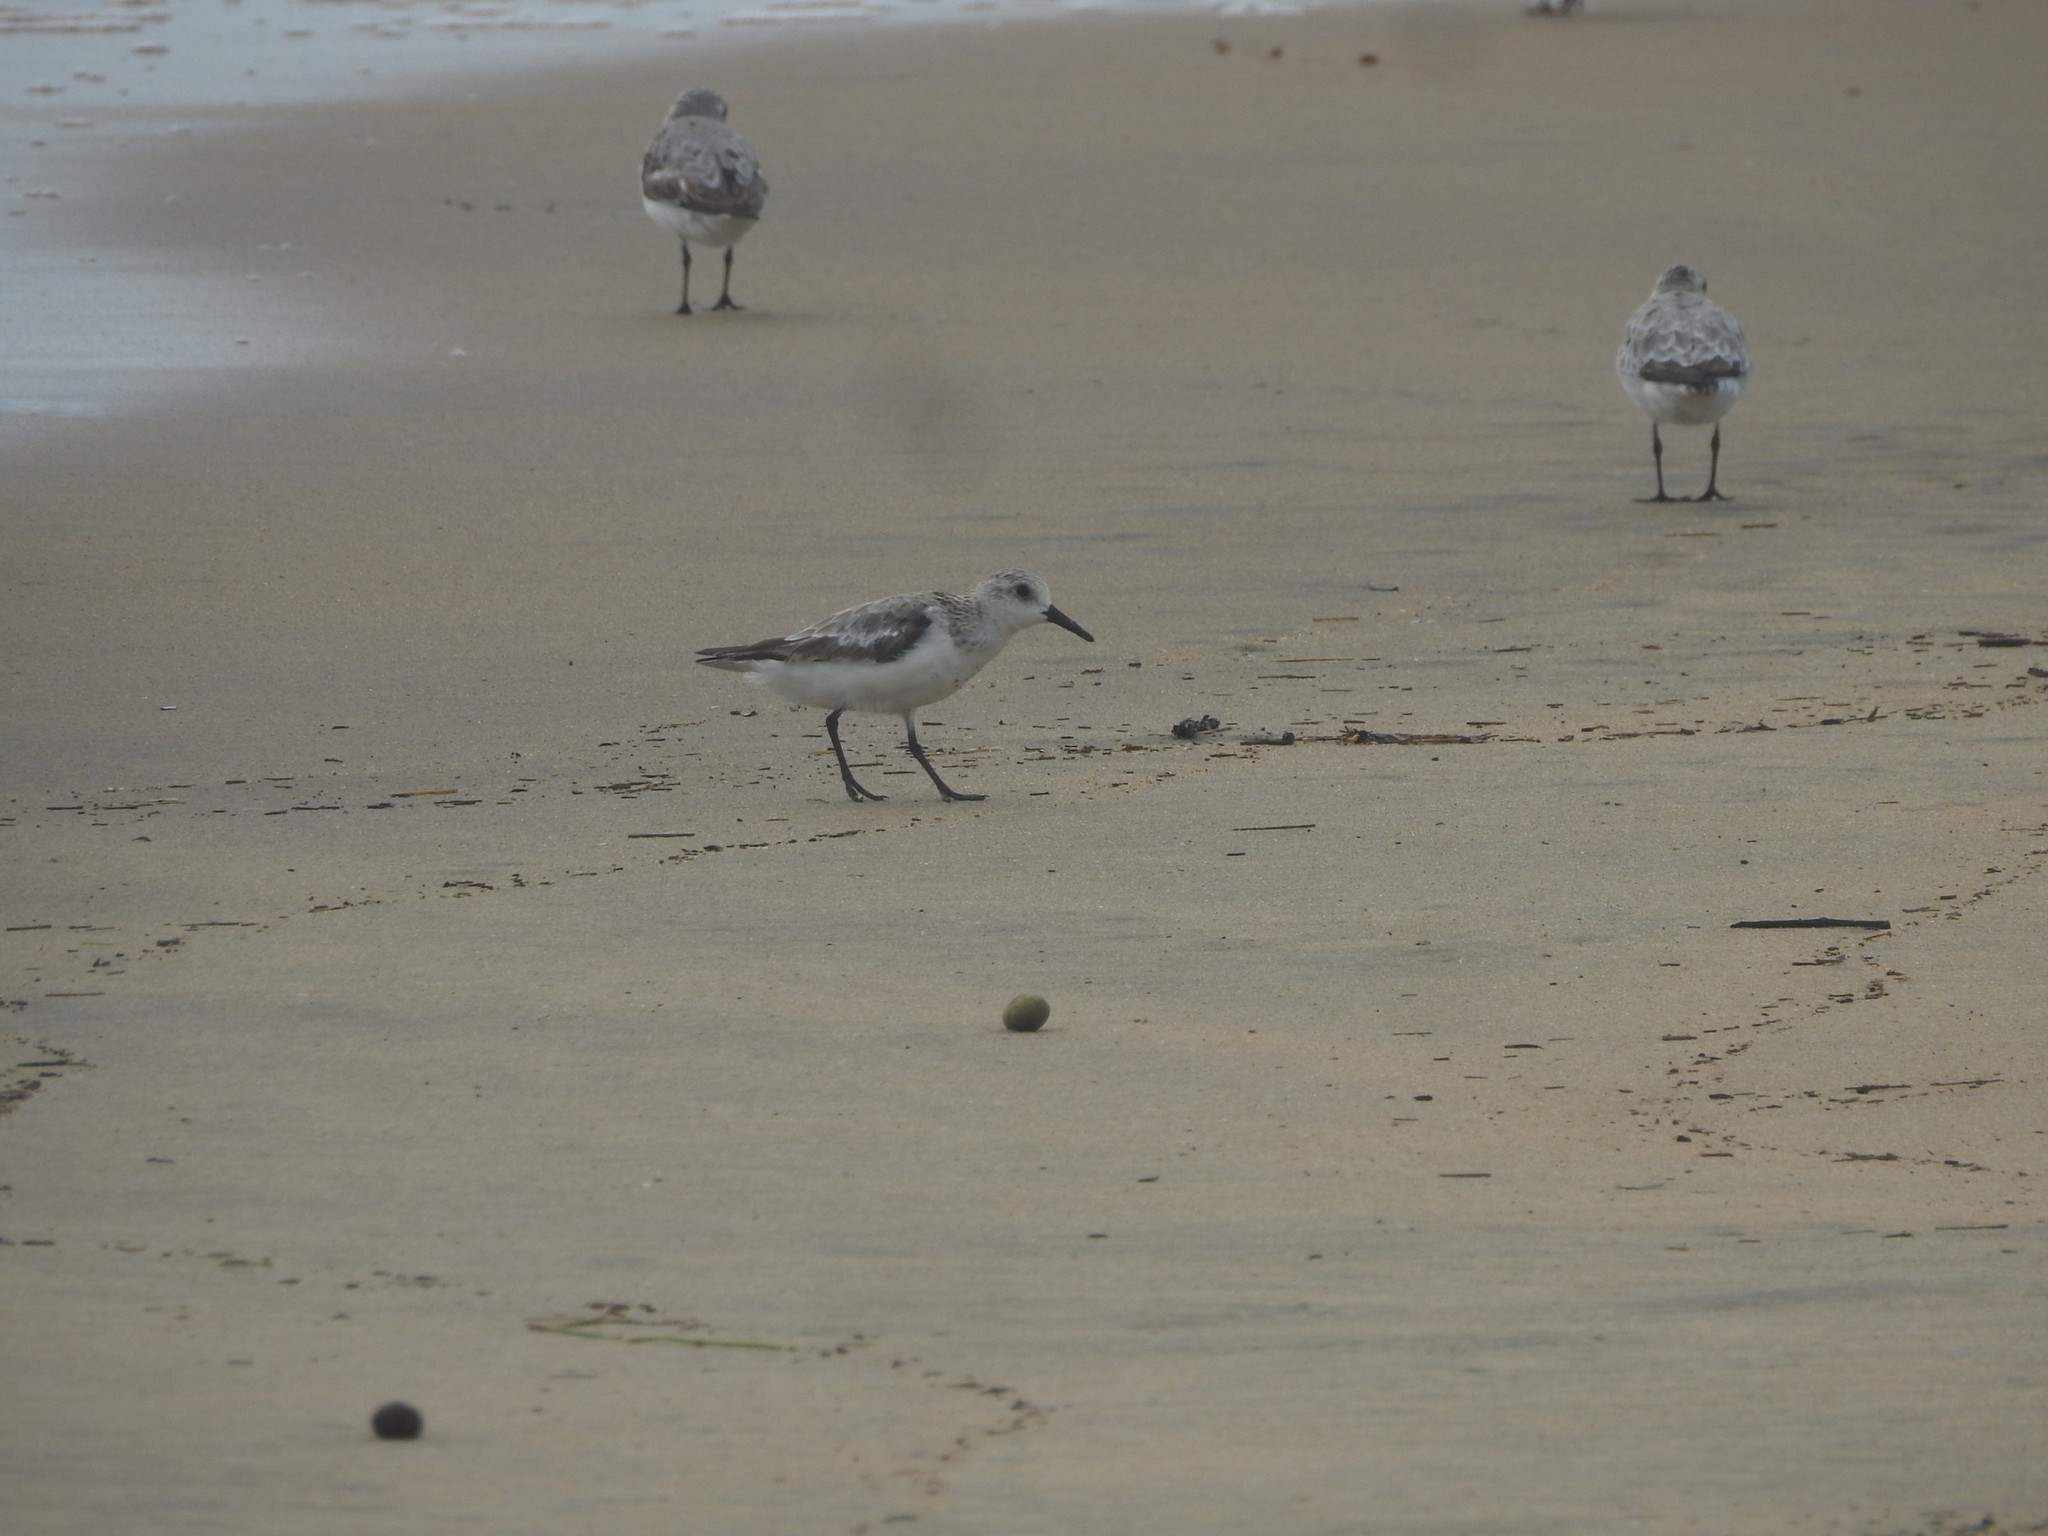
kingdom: Animalia
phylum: Chordata
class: Aves
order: Charadriiformes
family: Scolopacidae
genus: Calidris
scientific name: Calidris alba
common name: Sanderling
